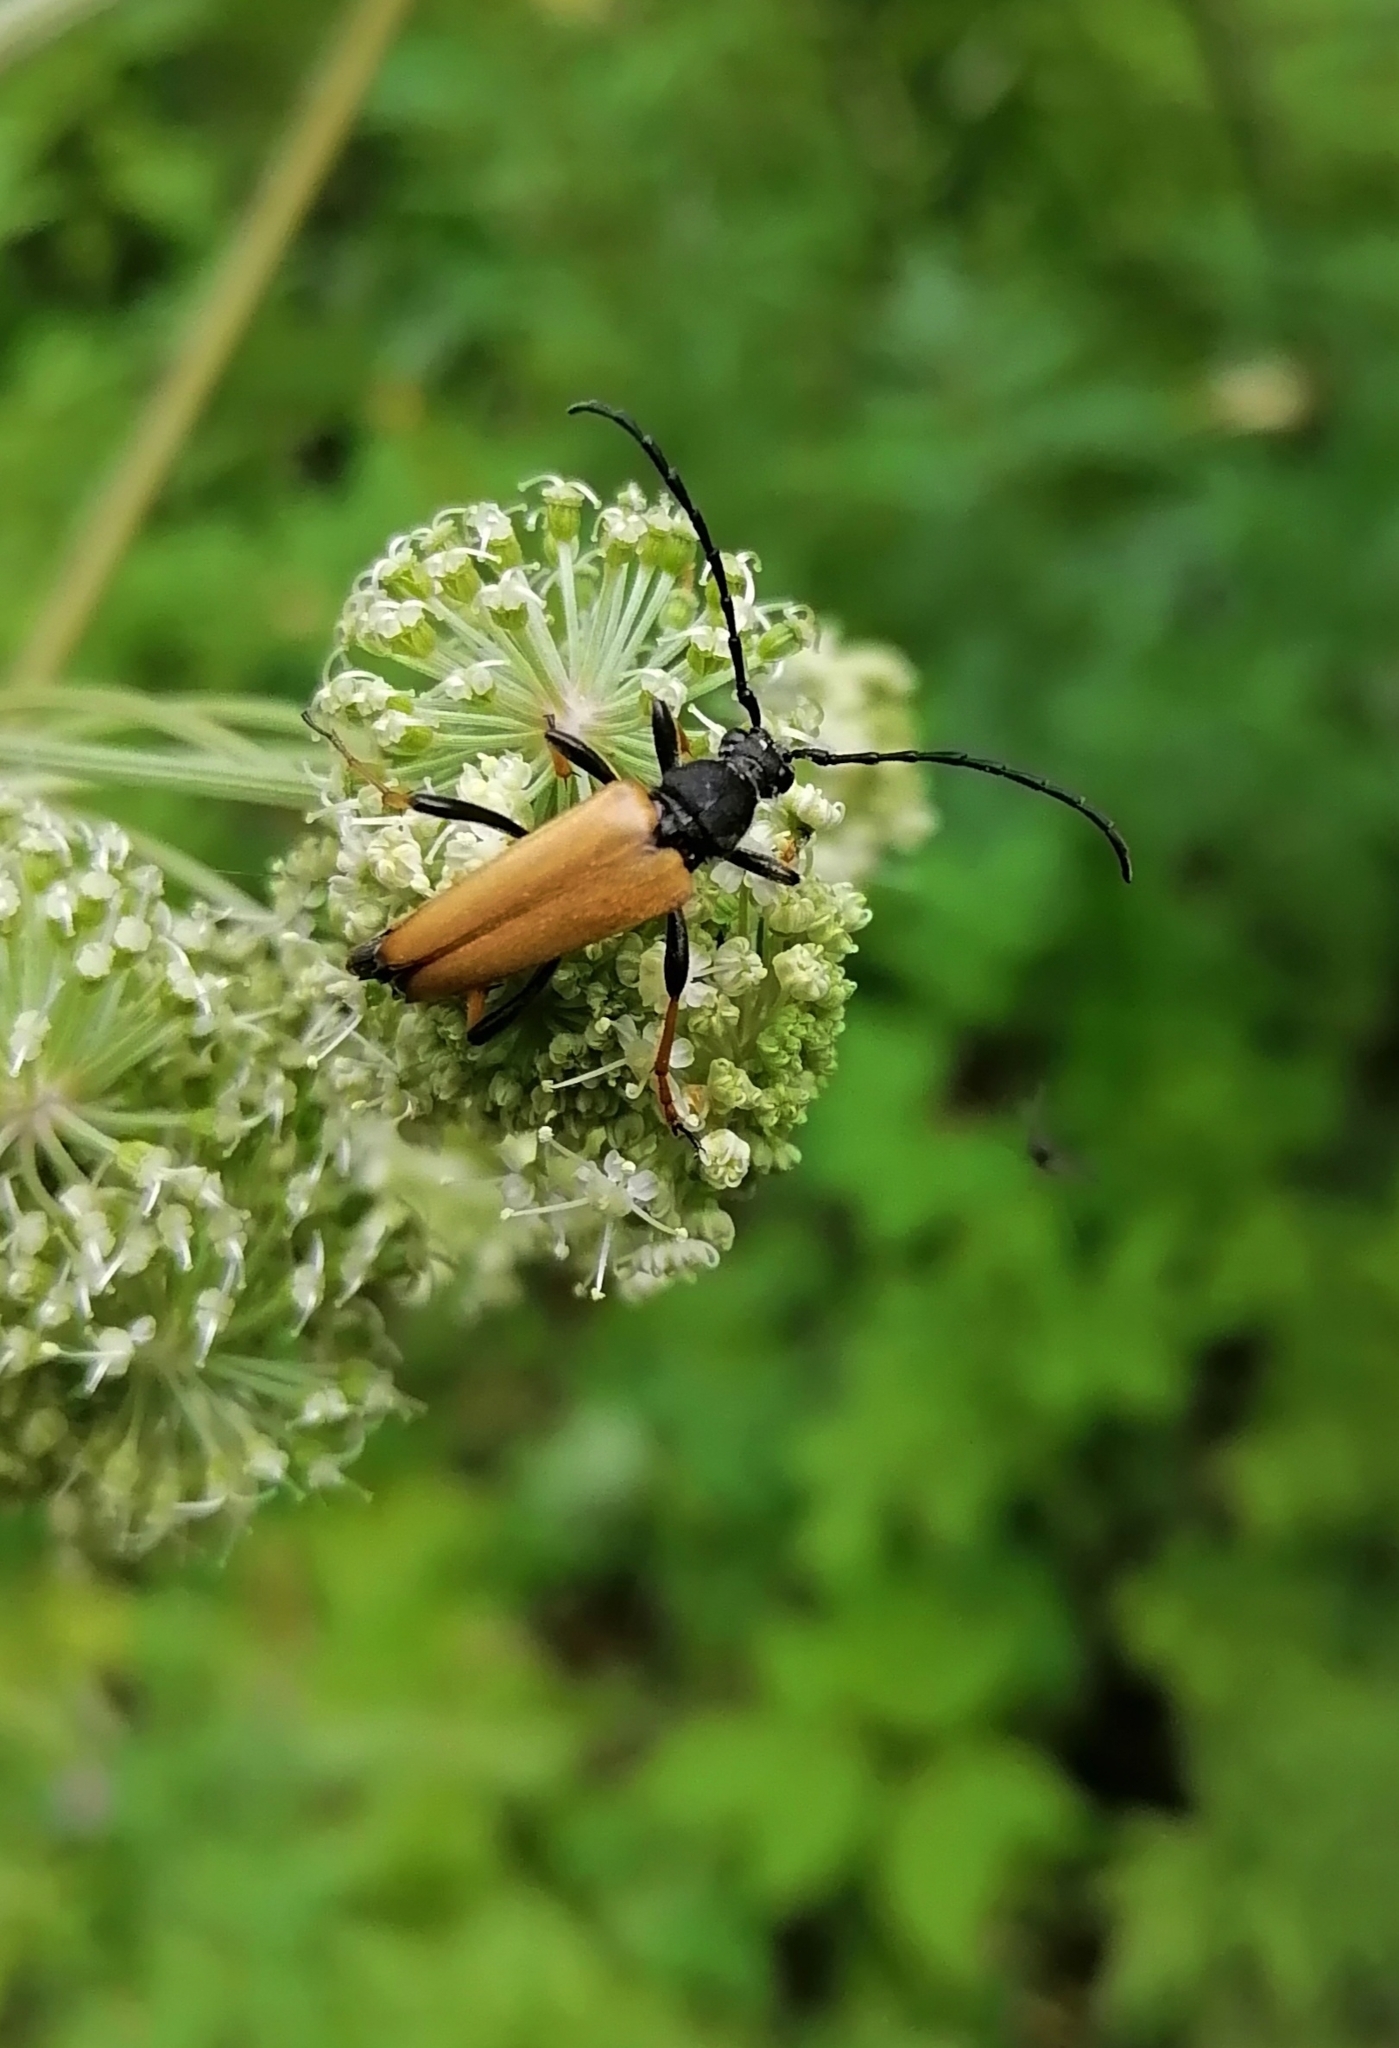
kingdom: Animalia
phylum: Arthropoda
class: Insecta
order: Coleoptera
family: Cerambycidae
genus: Stictoleptura
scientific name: Stictoleptura rubra
